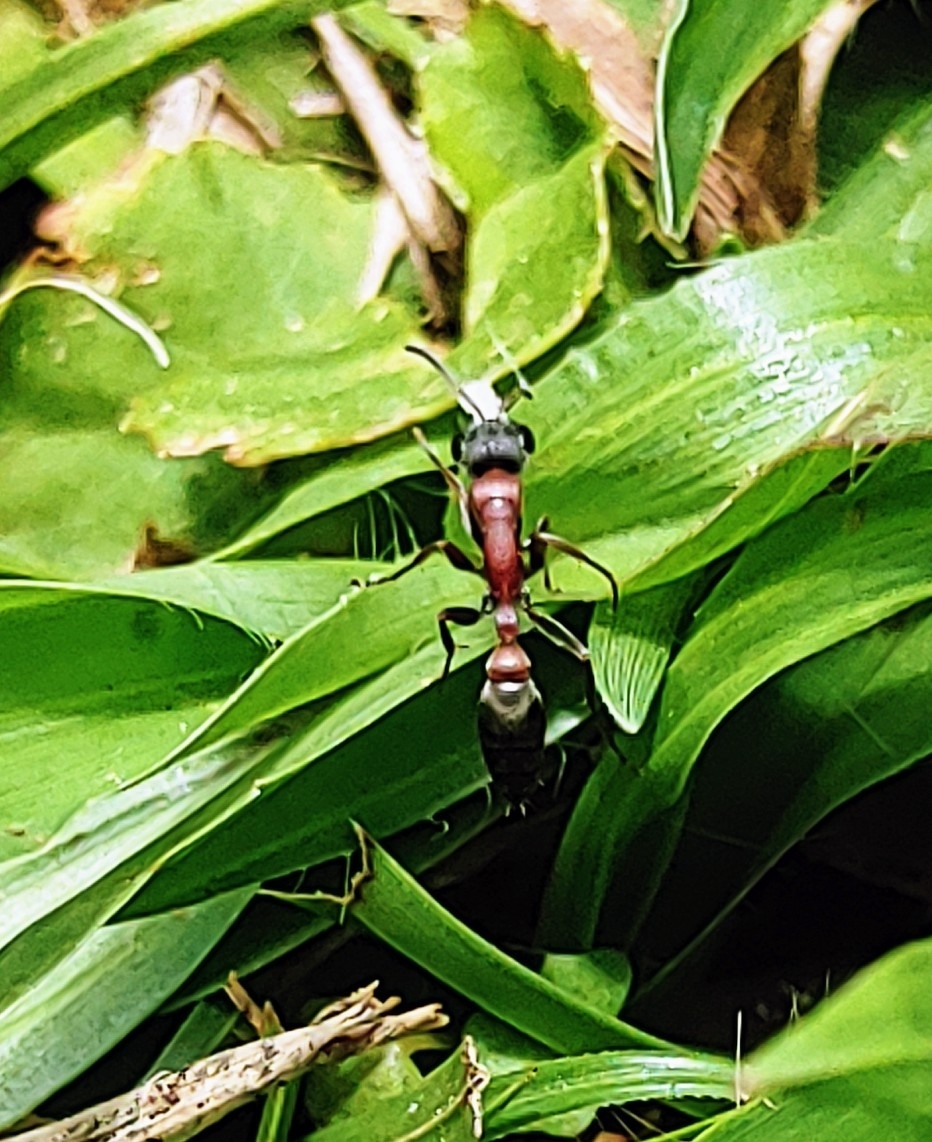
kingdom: Animalia
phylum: Arthropoda
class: Insecta
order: Hymenoptera
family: Formicidae
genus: Pseudomyrmex
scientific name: Pseudomyrmex termitarius
